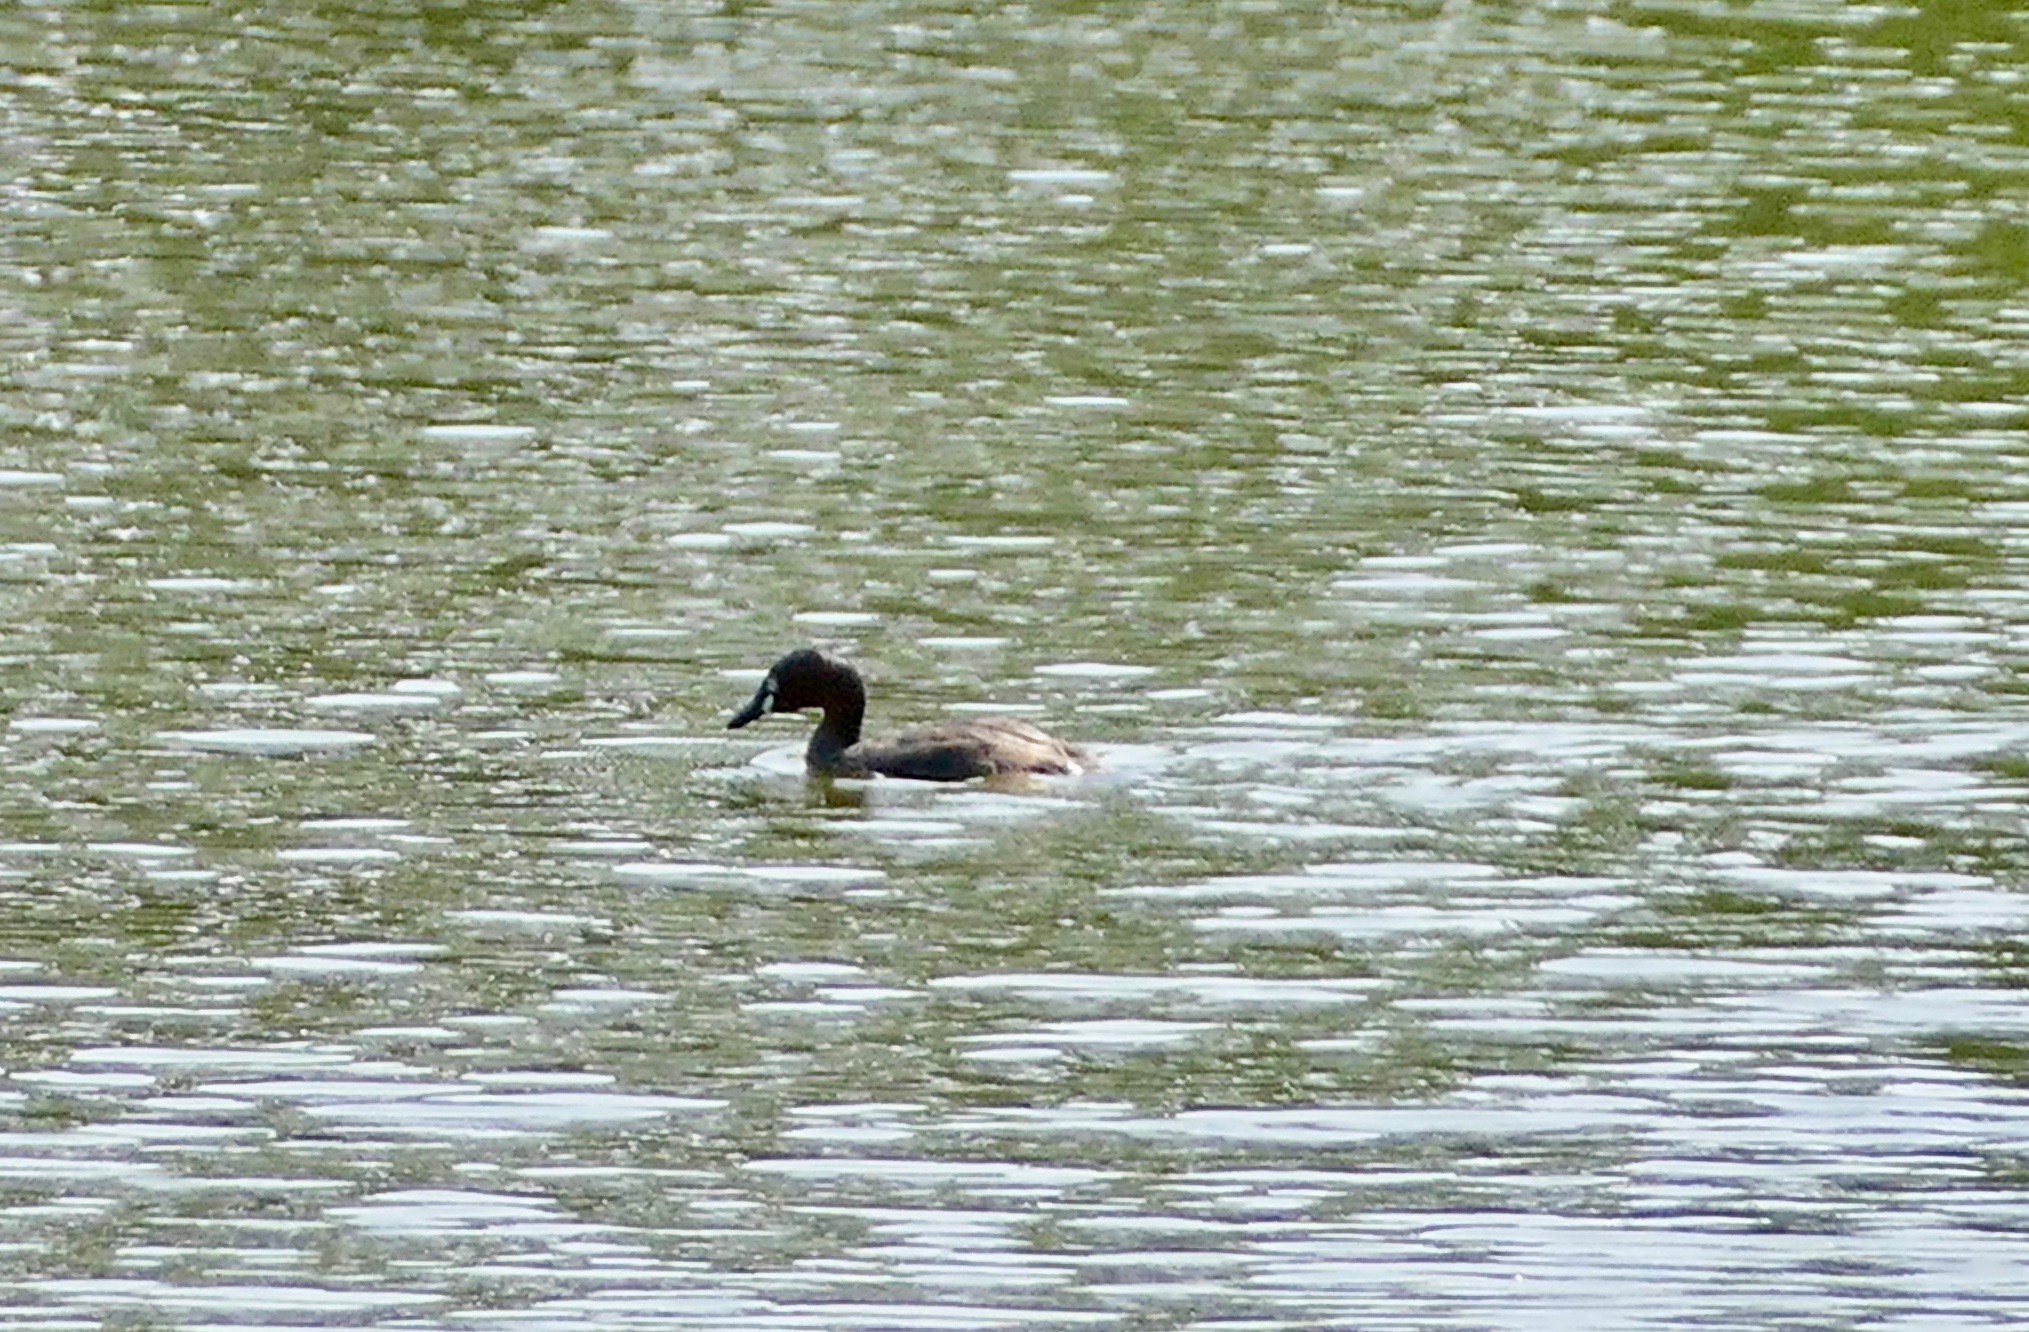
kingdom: Animalia
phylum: Chordata
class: Aves
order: Podicipediformes
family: Podicipedidae
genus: Tachybaptus
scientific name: Tachybaptus ruficollis
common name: Little grebe
